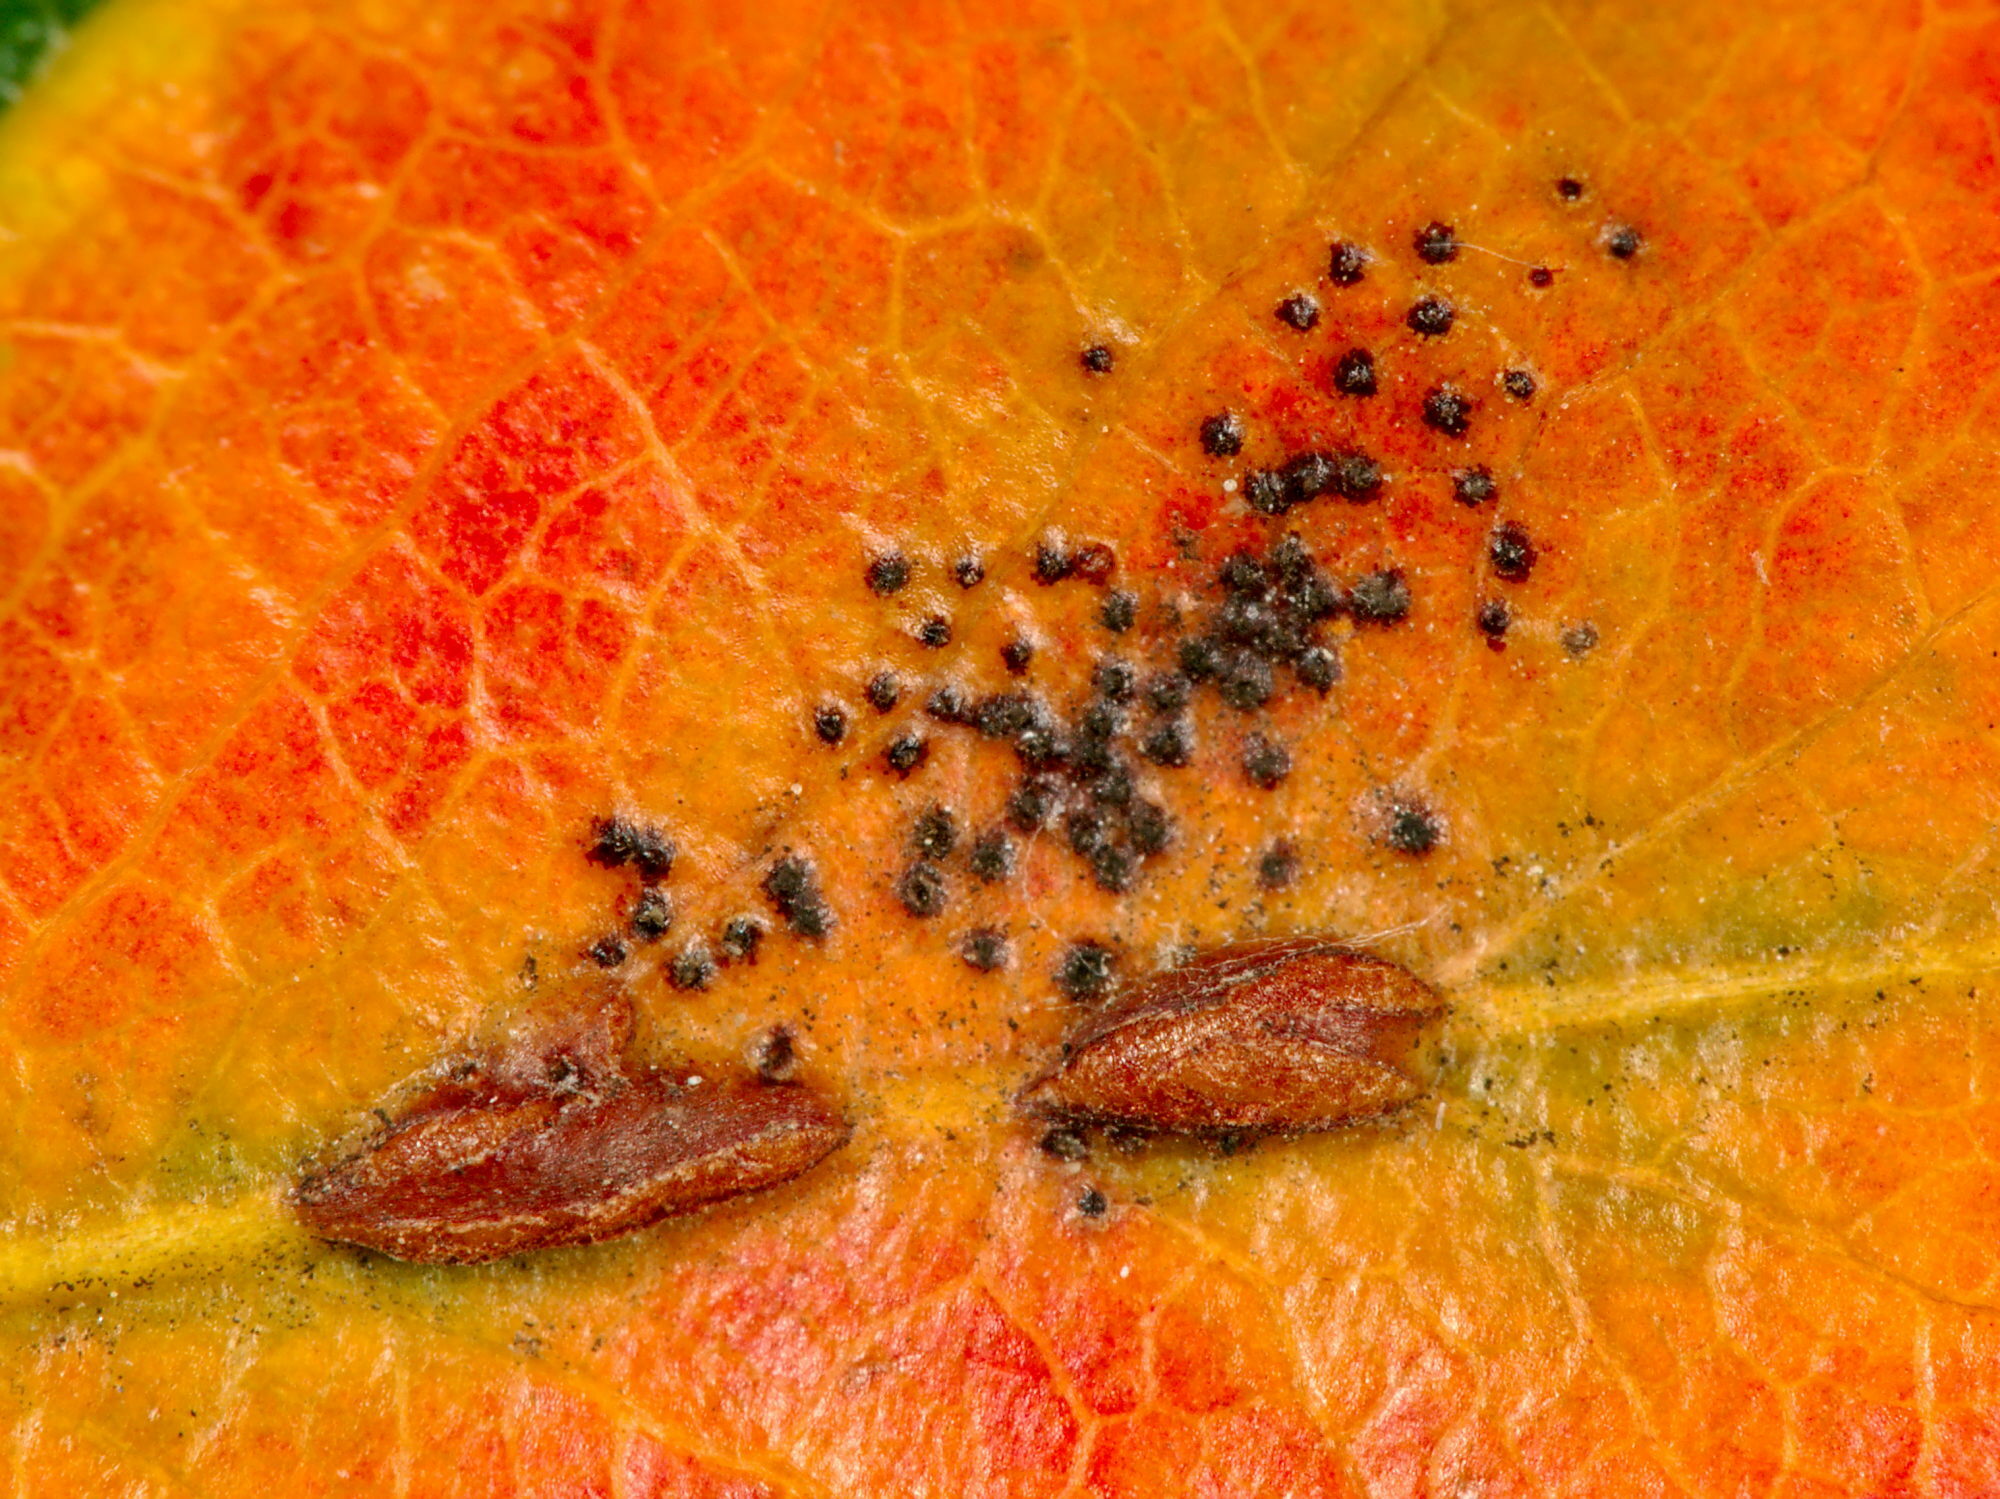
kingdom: Fungi
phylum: Basidiomycota
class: Pucciniomycetes
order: Pucciniales
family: Gymnosporangiaceae
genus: Gymnosporangium
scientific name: Gymnosporangium sabinae
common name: Pear trellis rust fungus
